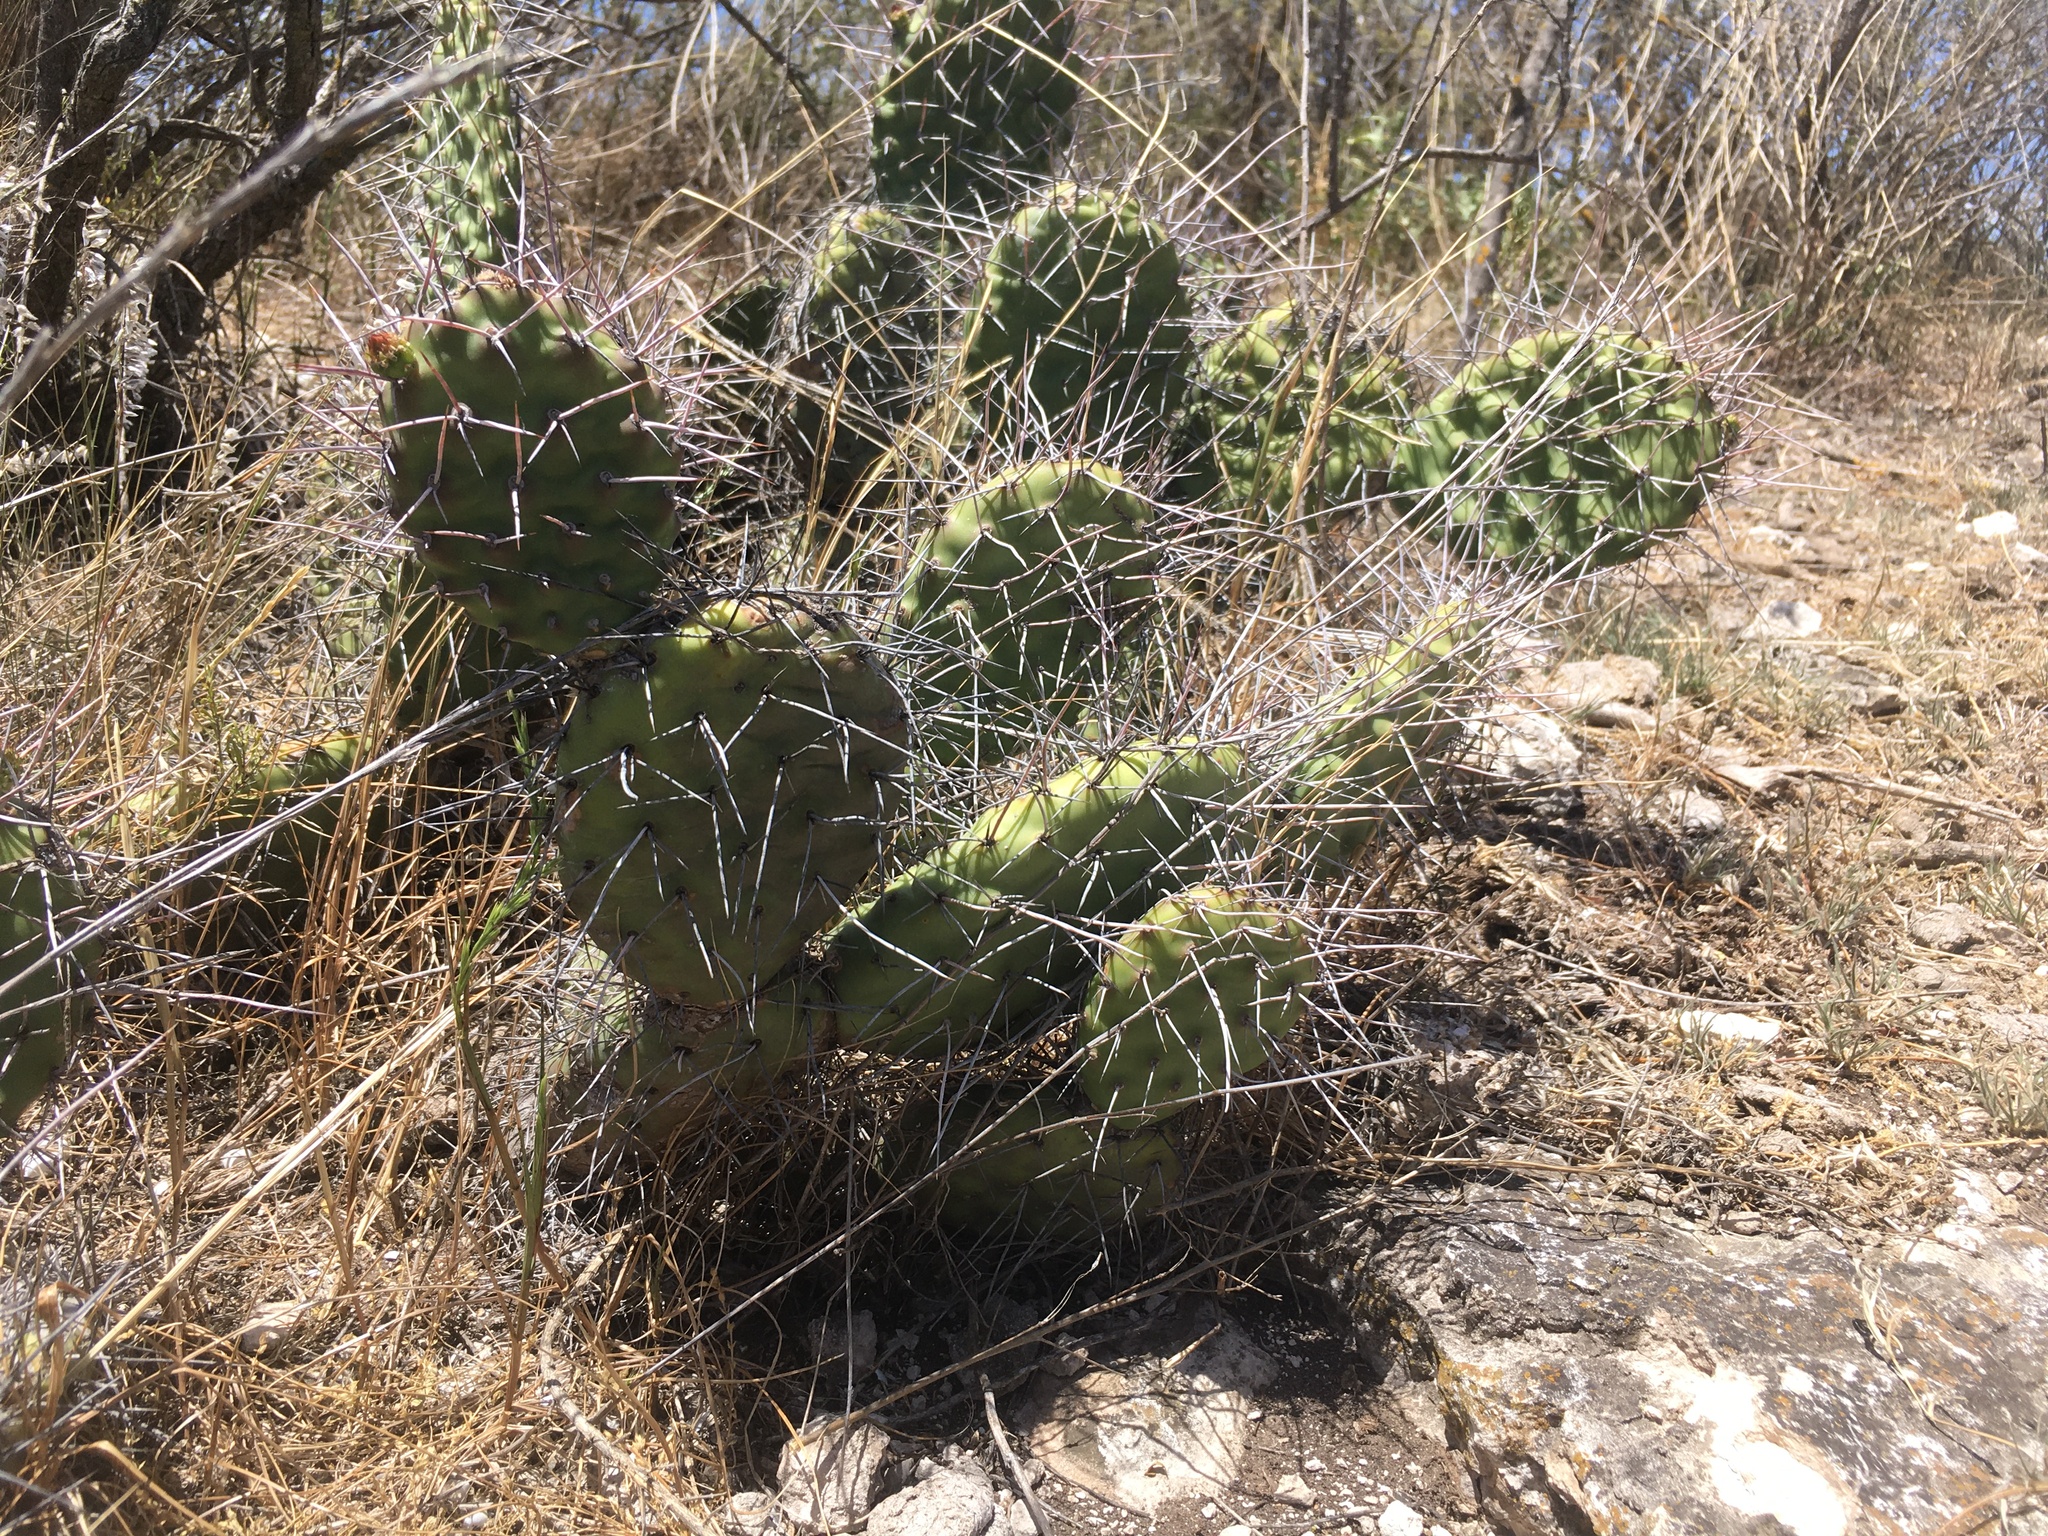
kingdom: Plantae
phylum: Tracheophyta
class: Magnoliopsida
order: Caryophyllales
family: Cactaceae
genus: Opuntia
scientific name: Opuntia sulphurea
